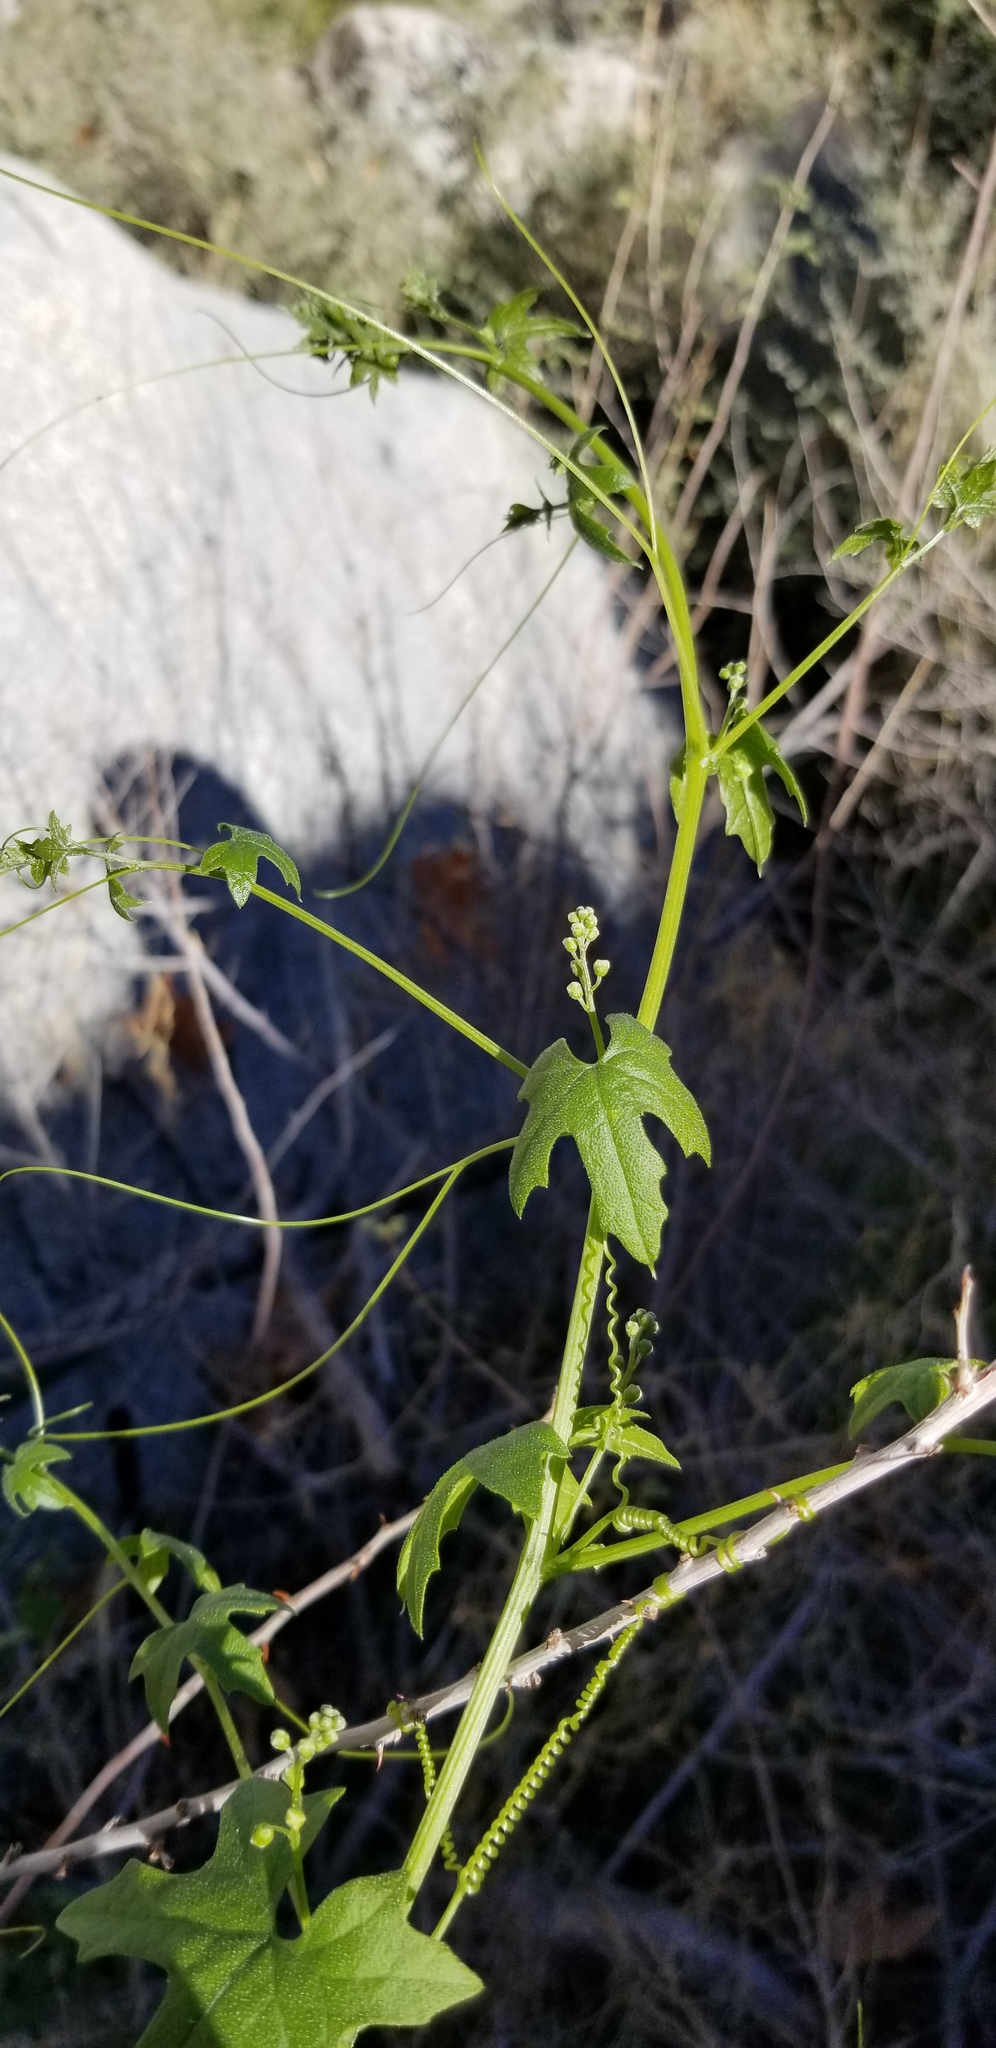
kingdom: Plantae
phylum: Tracheophyta
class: Magnoliopsida
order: Cucurbitales
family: Cucurbitaceae
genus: Marah
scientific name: Marah macrocarpa
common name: Cucamonga manroot
